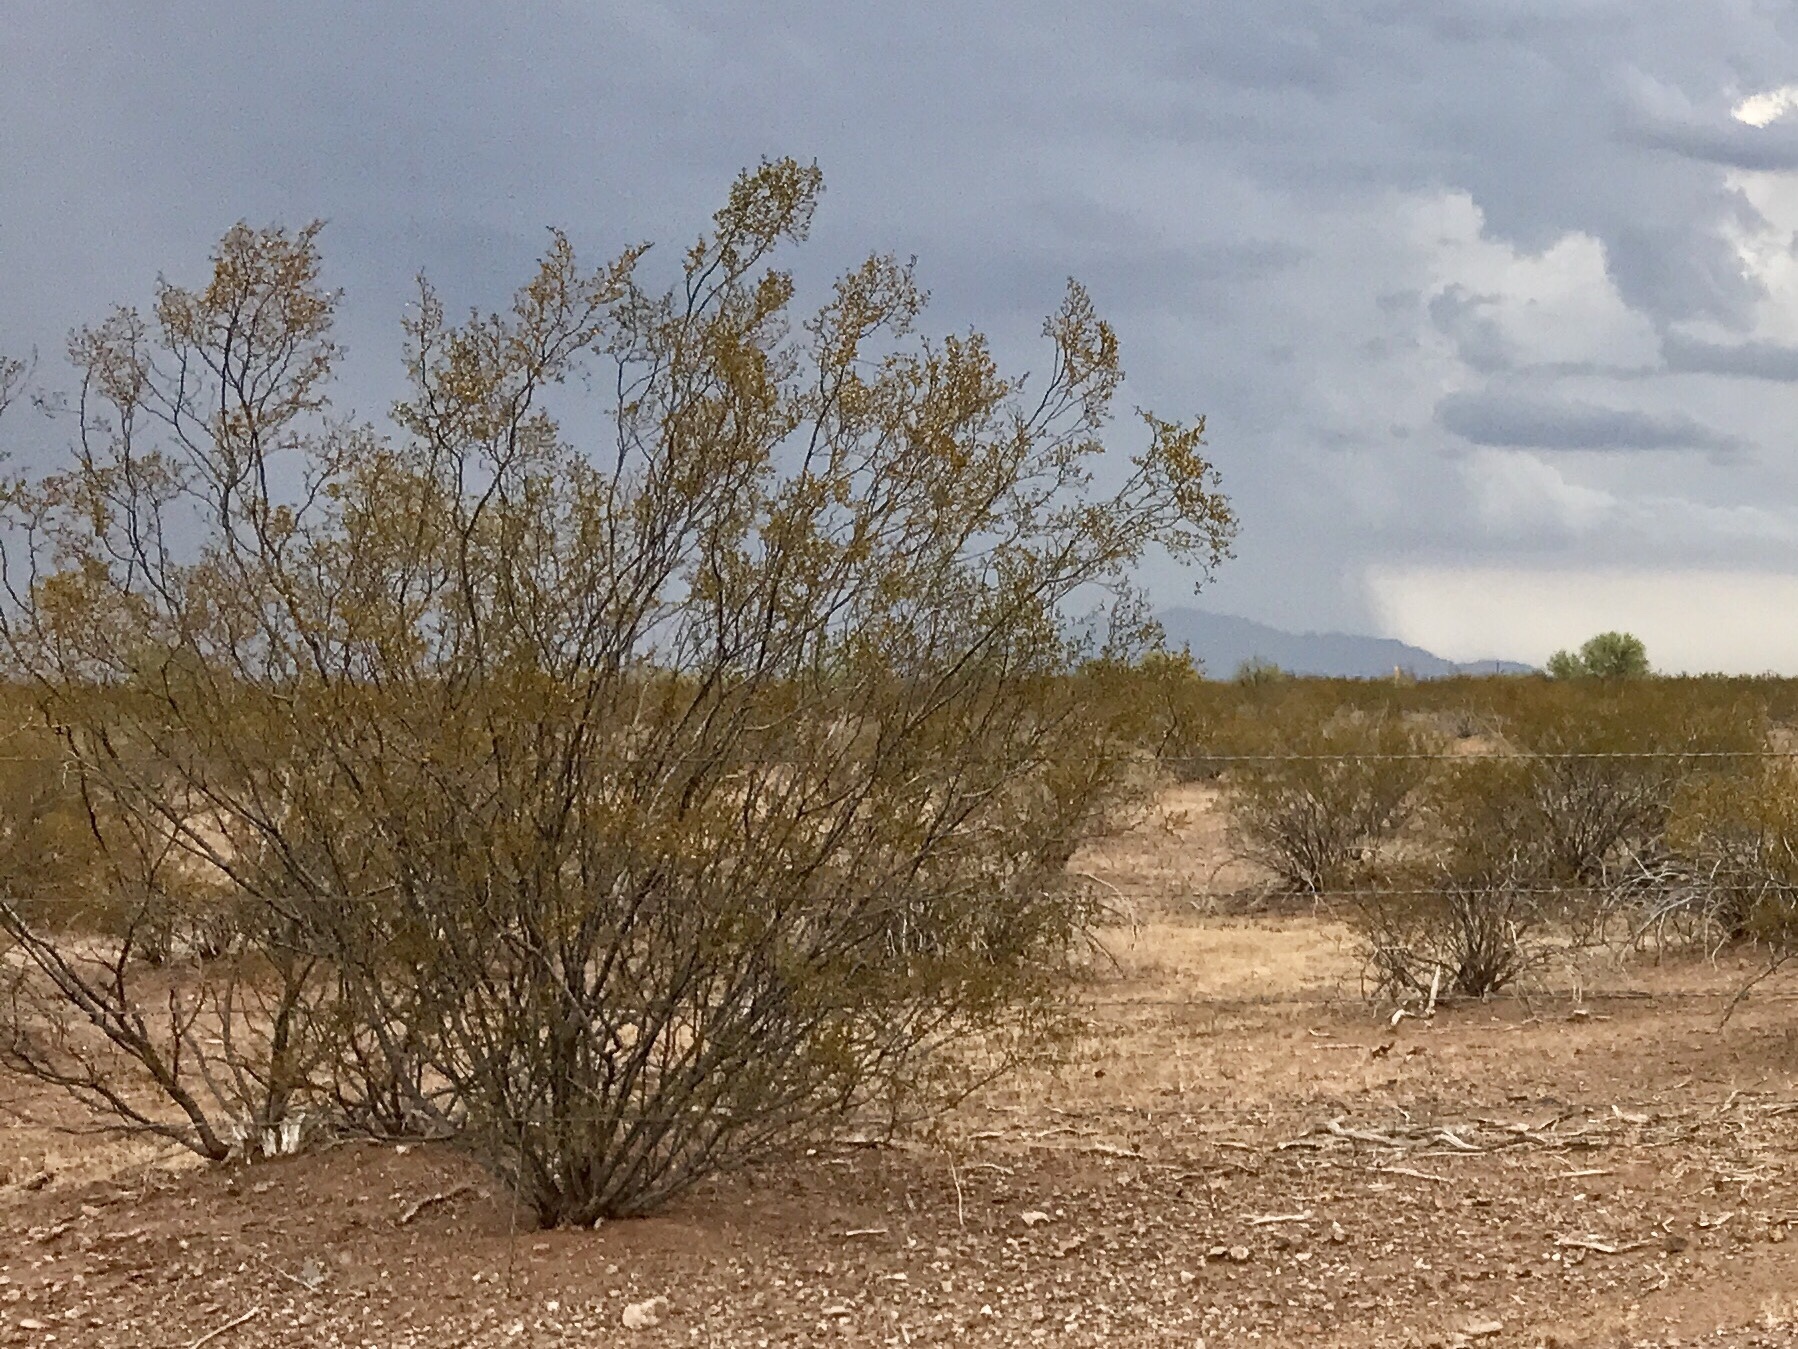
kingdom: Plantae
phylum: Tracheophyta
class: Magnoliopsida
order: Zygophyllales
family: Zygophyllaceae
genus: Larrea
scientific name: Larrea tridentata
